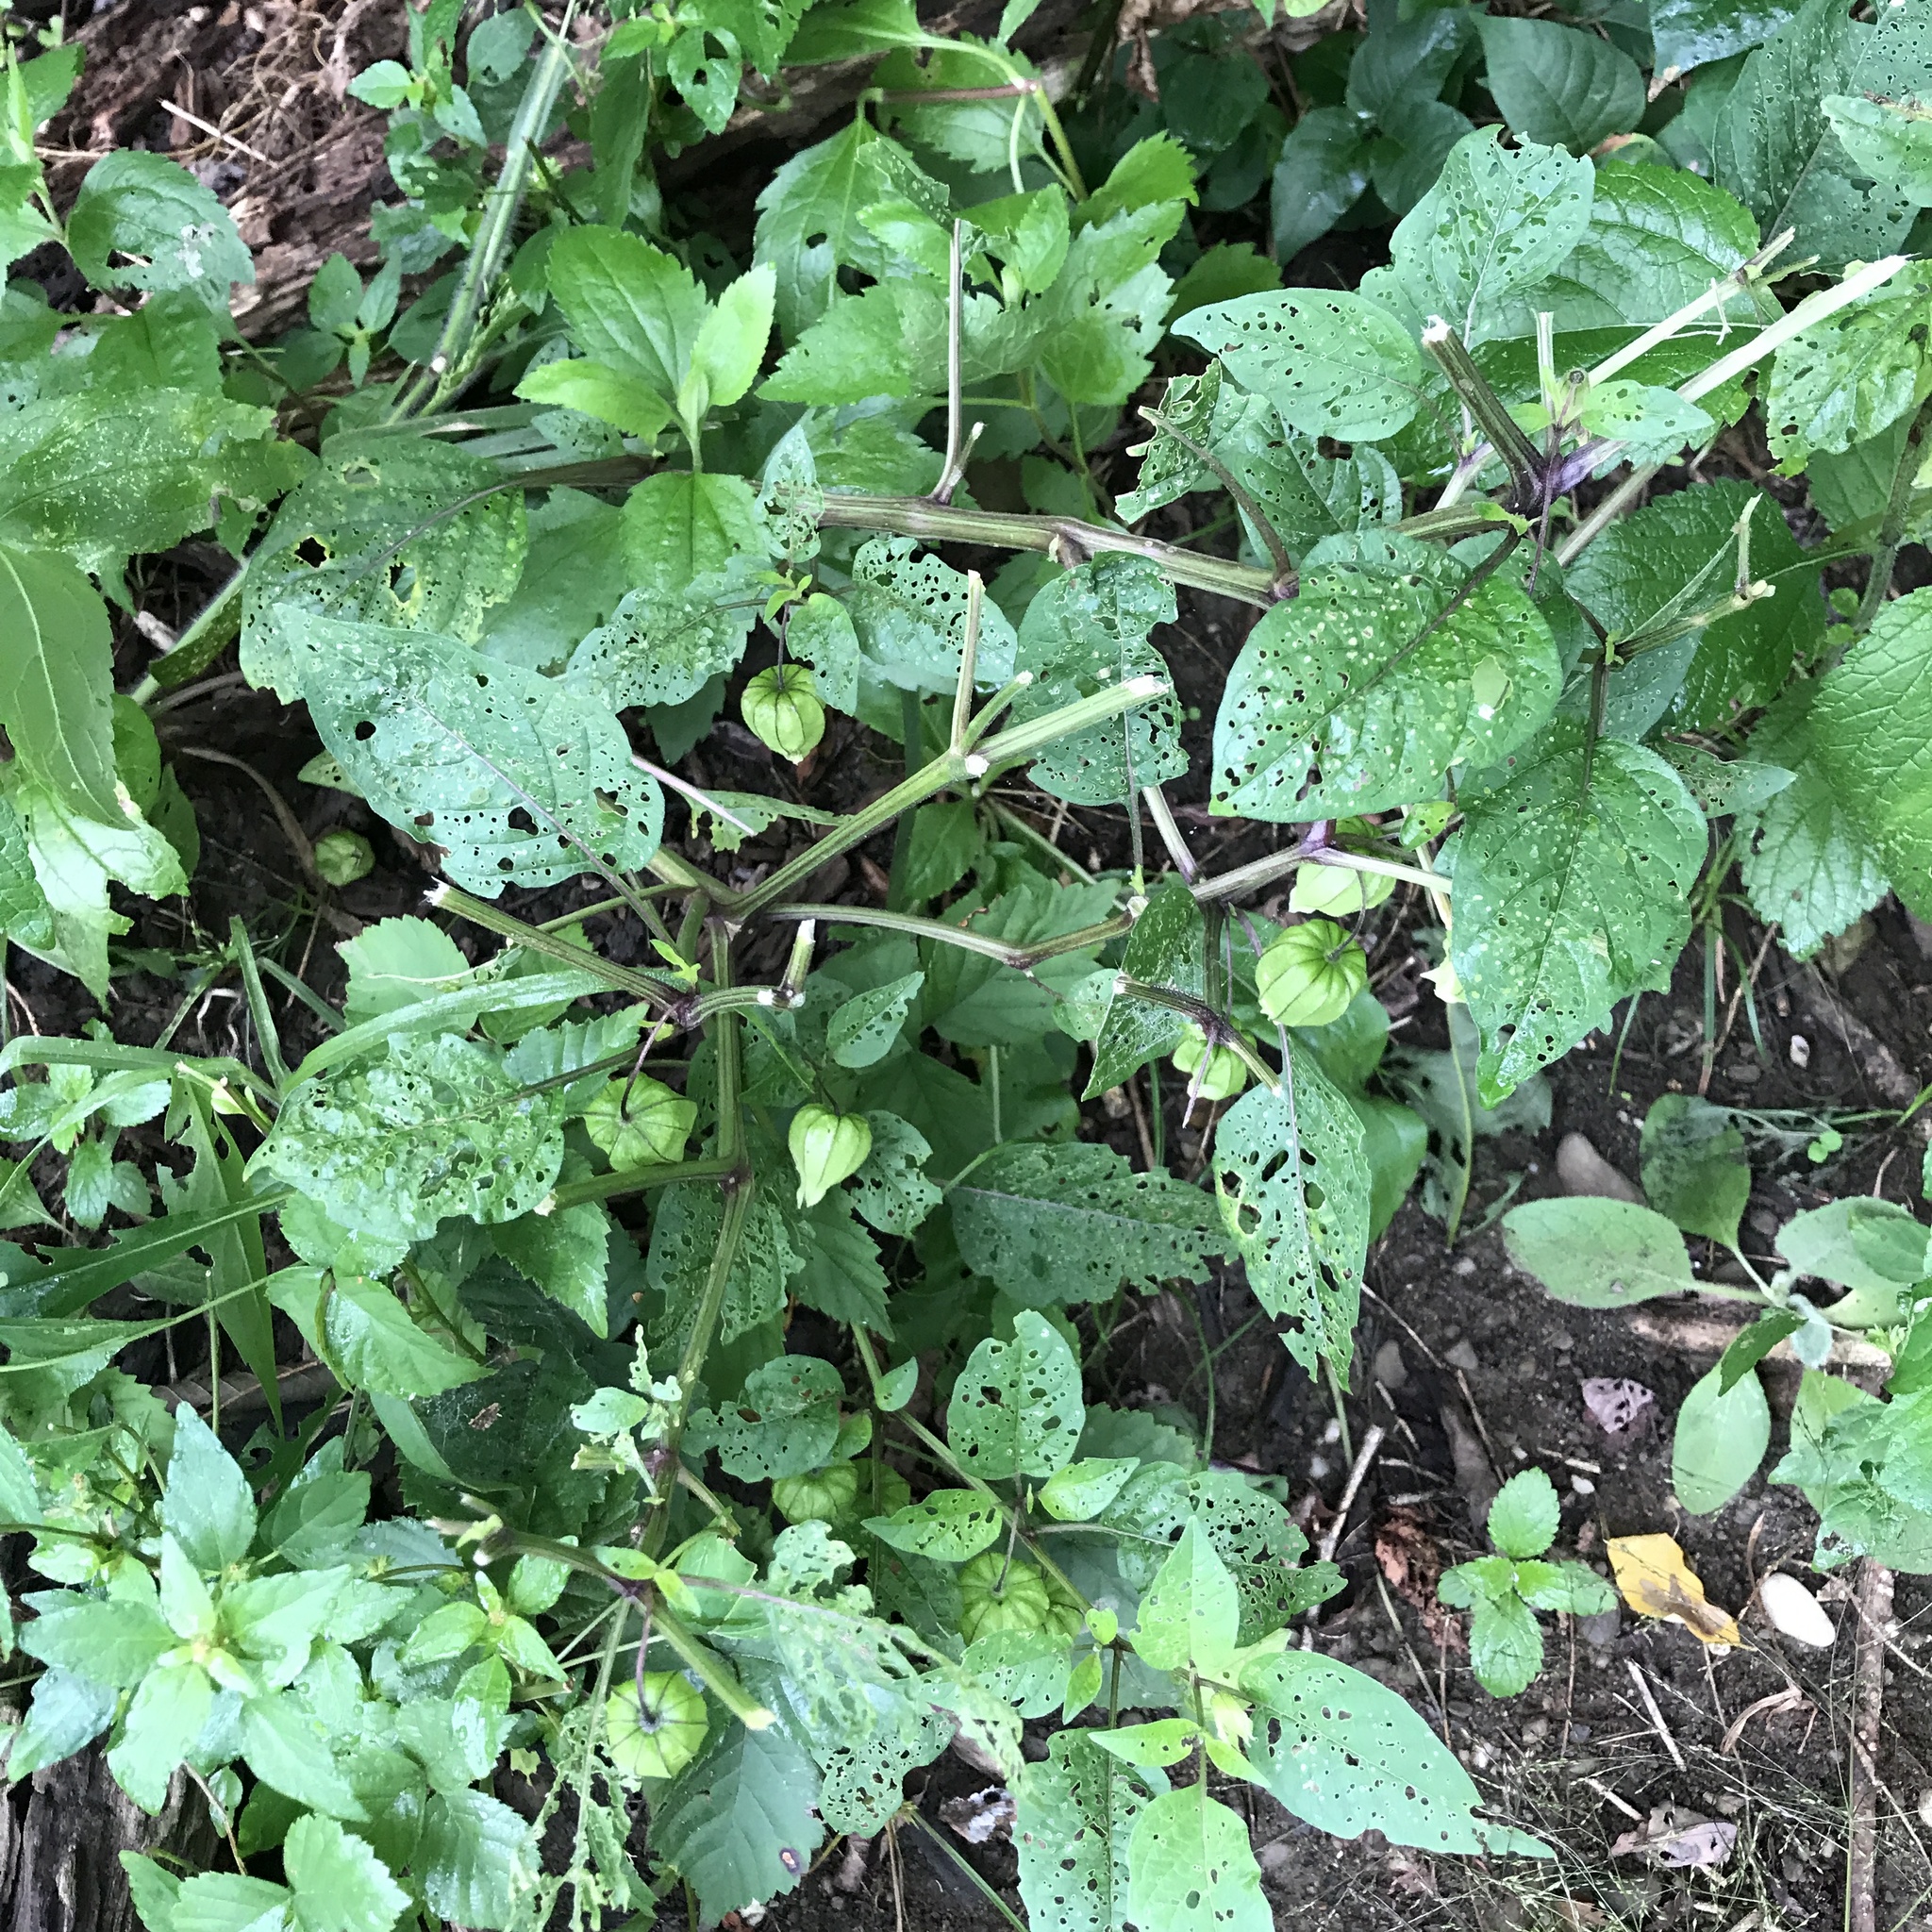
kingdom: Plantae
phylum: Tracheophyta
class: Magnoliopsida
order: Solanales
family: Solanaceae
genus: Physalis
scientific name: Physalis longifolia
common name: Common ground-cherry
